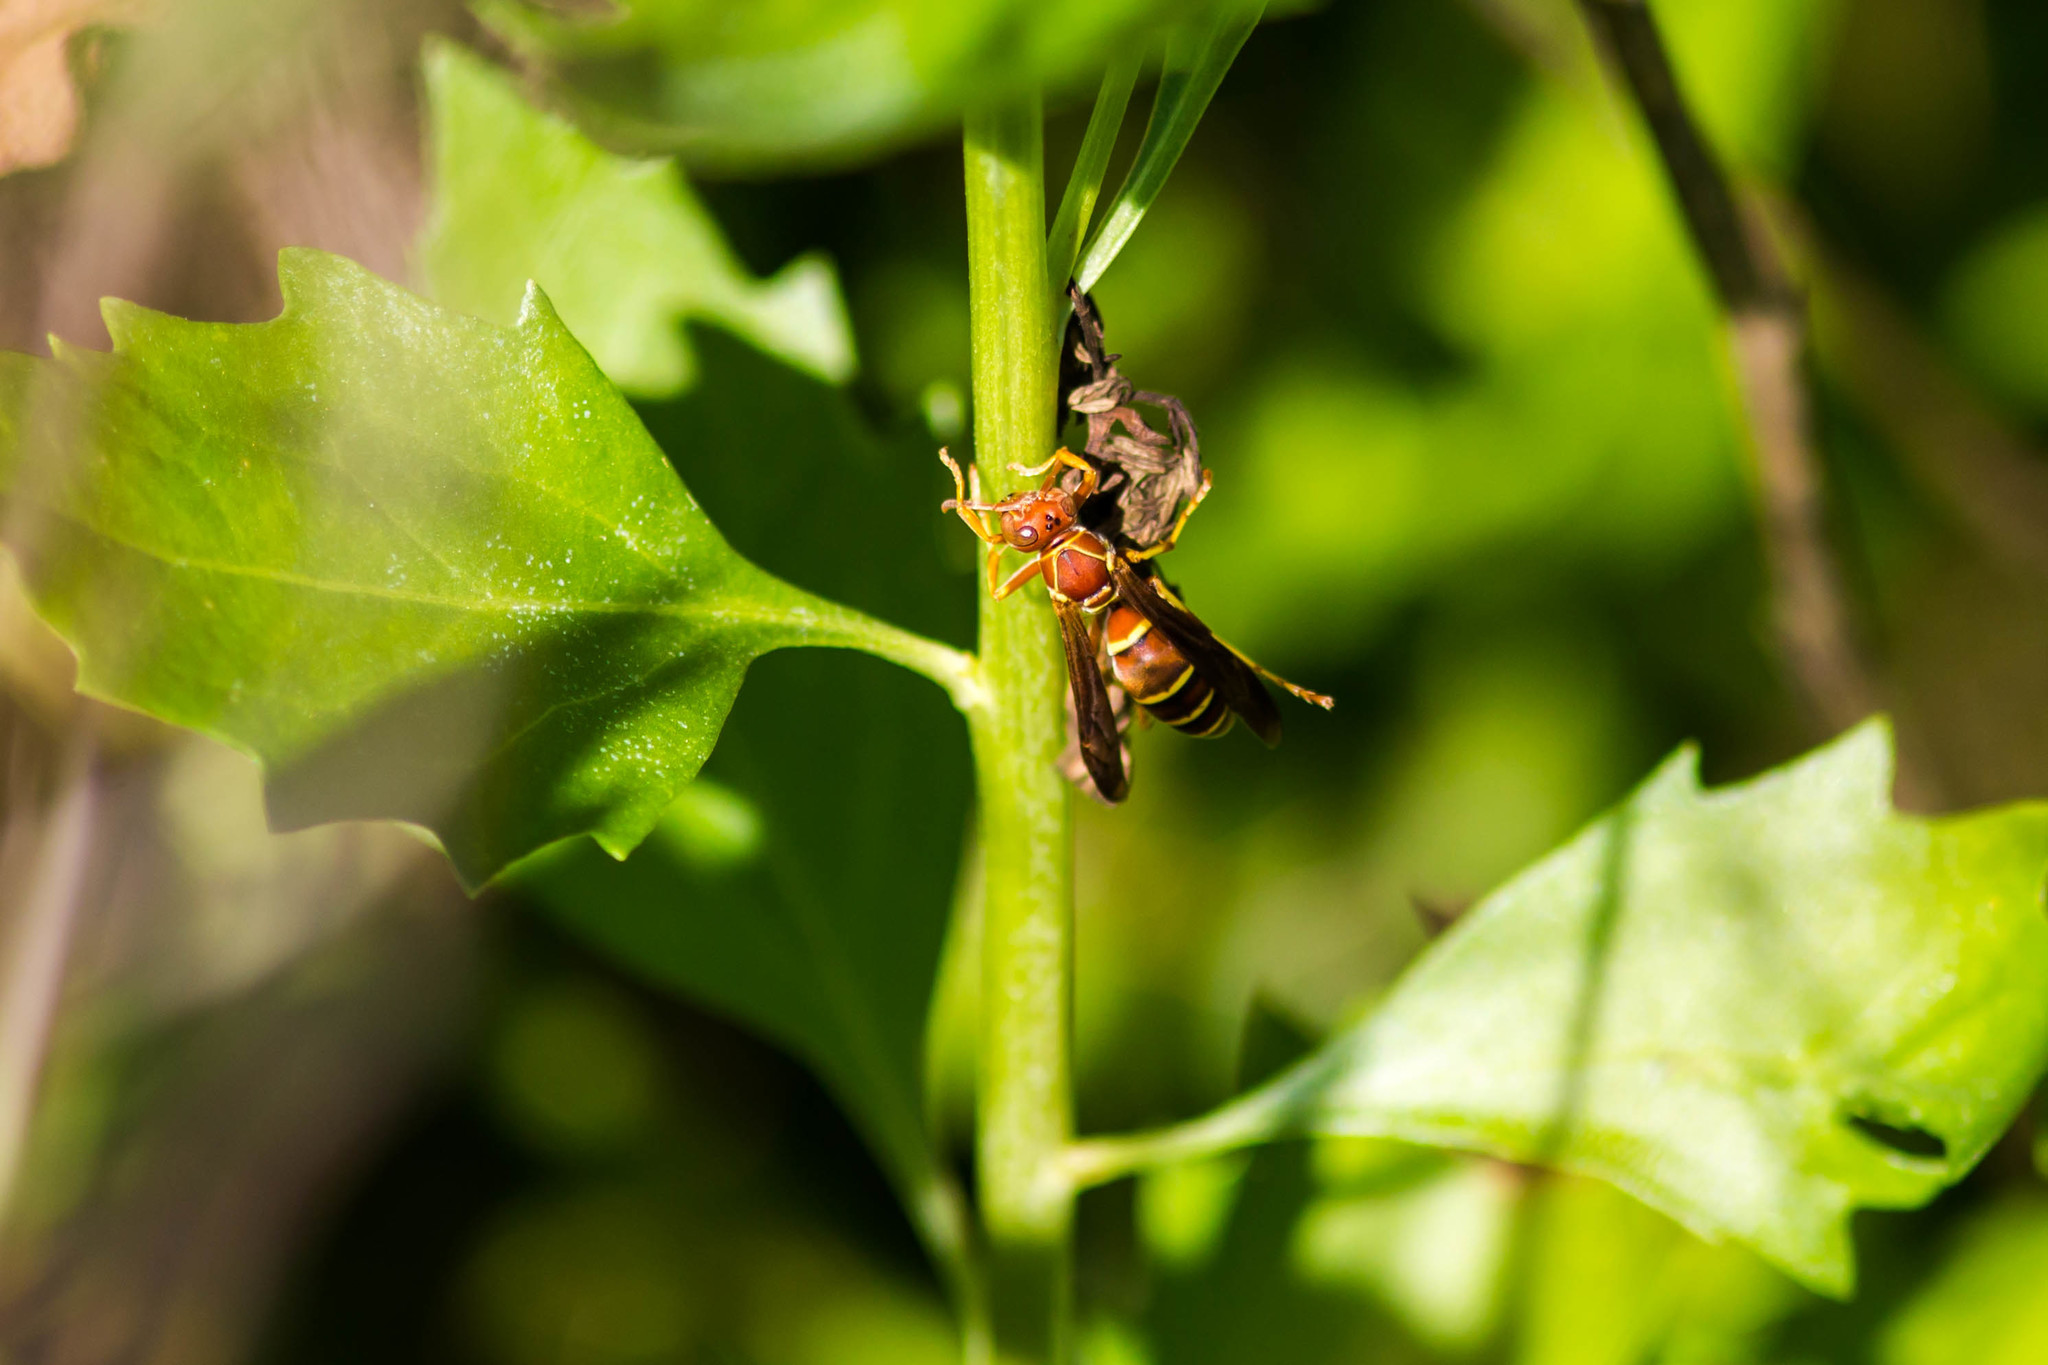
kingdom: Animalia
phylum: Arthropoda
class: Insecta
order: Hymenoptera
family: Eumenidae
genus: Polistes
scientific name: Polistes dorsalis
